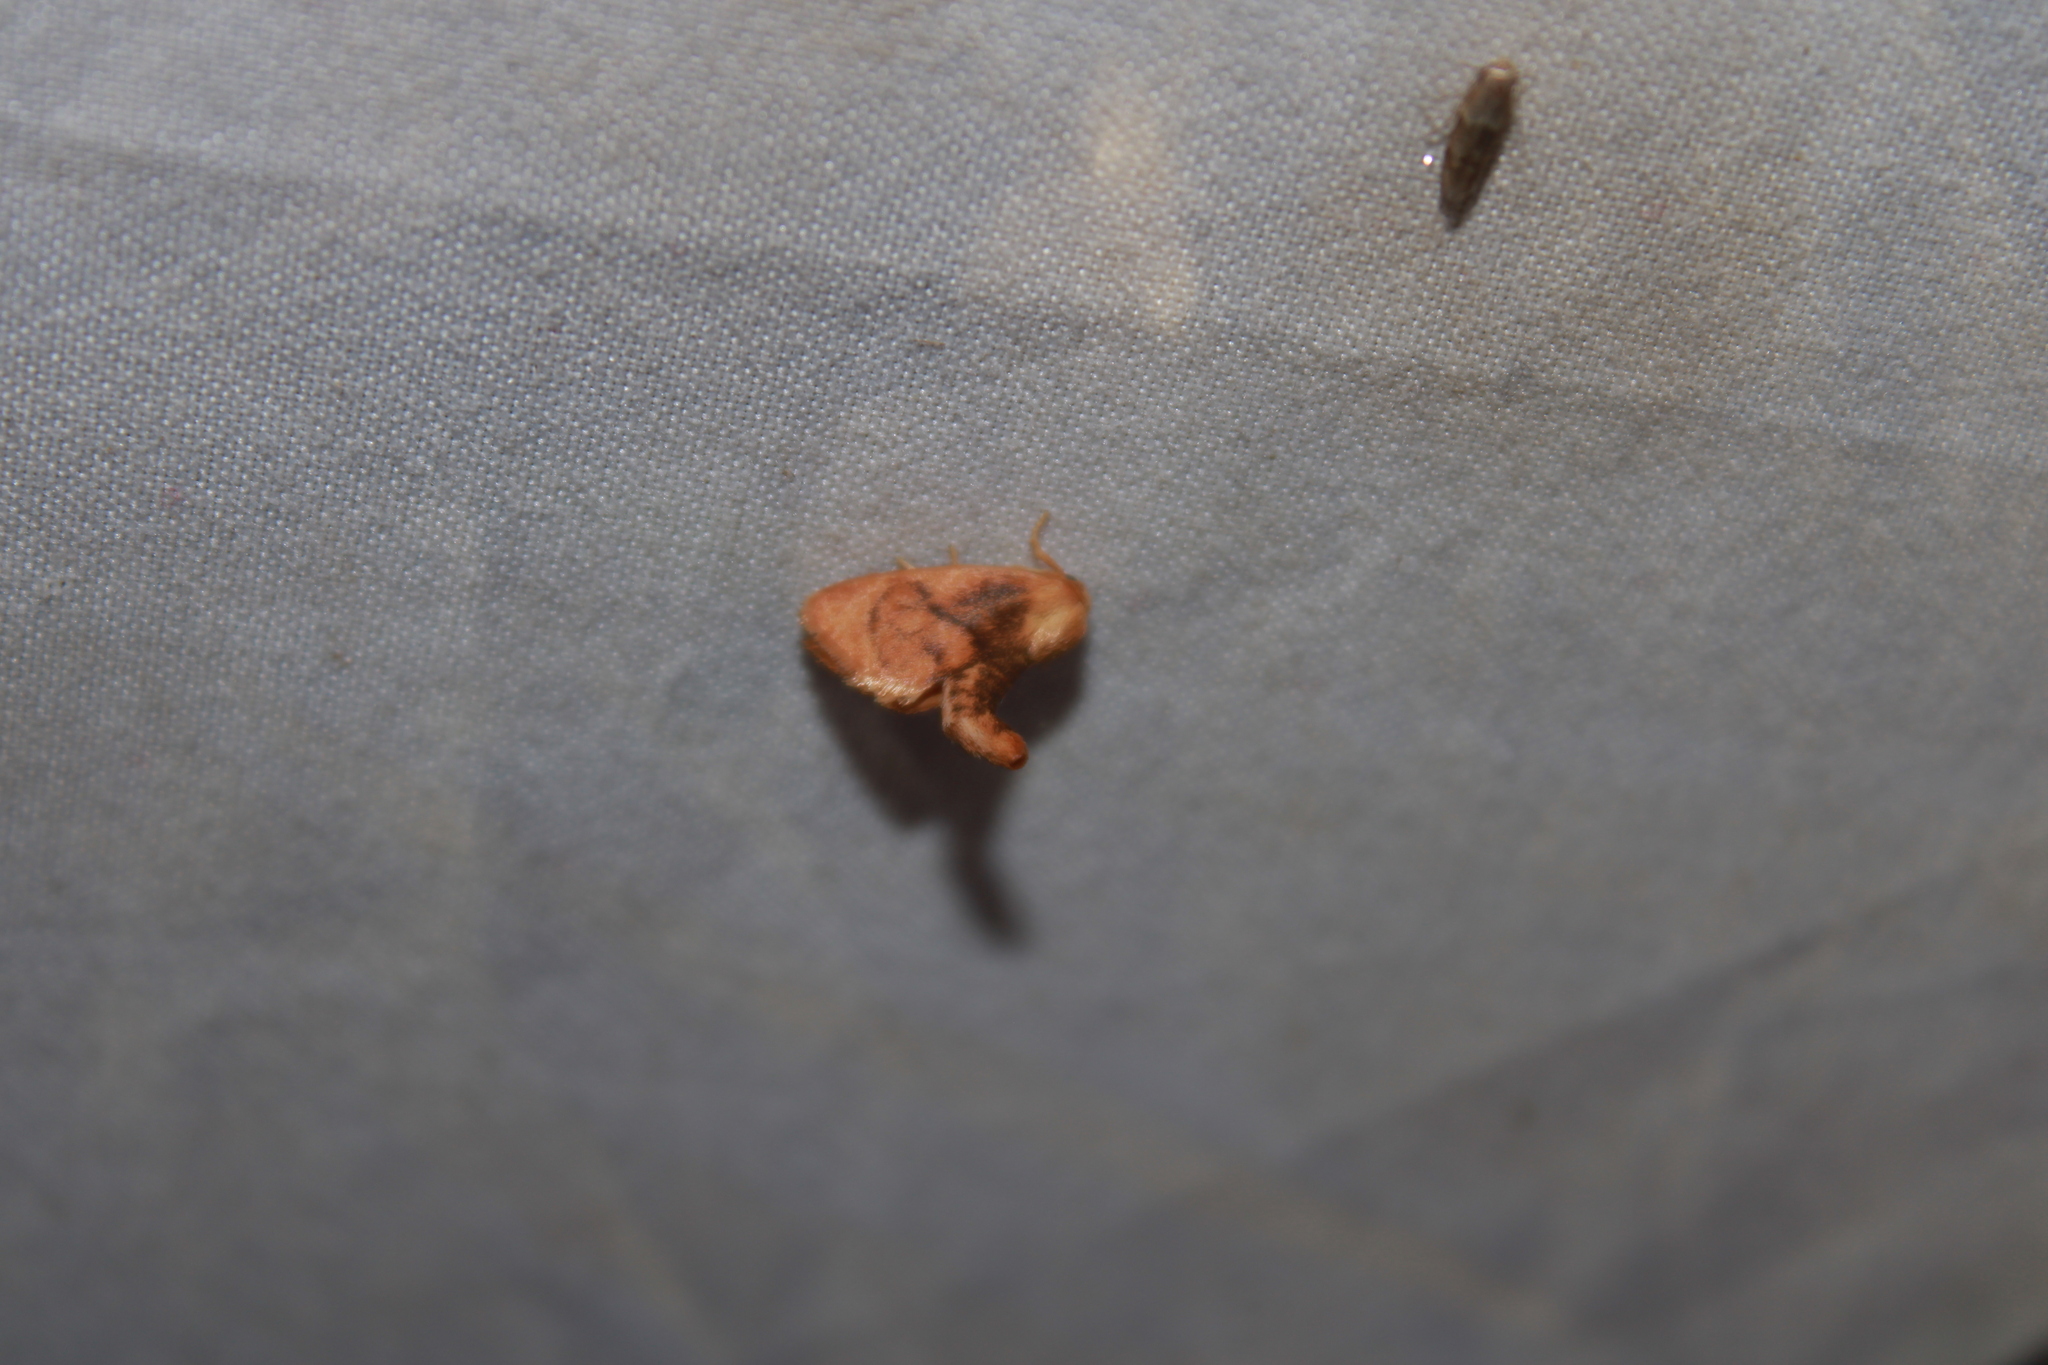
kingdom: Animalia
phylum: Arthropoda
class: Insecta
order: Lepidoptera
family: Limacodidae
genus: Tortricidia
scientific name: Tortricidia flexuosa
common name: Abbreviated button slug moth
